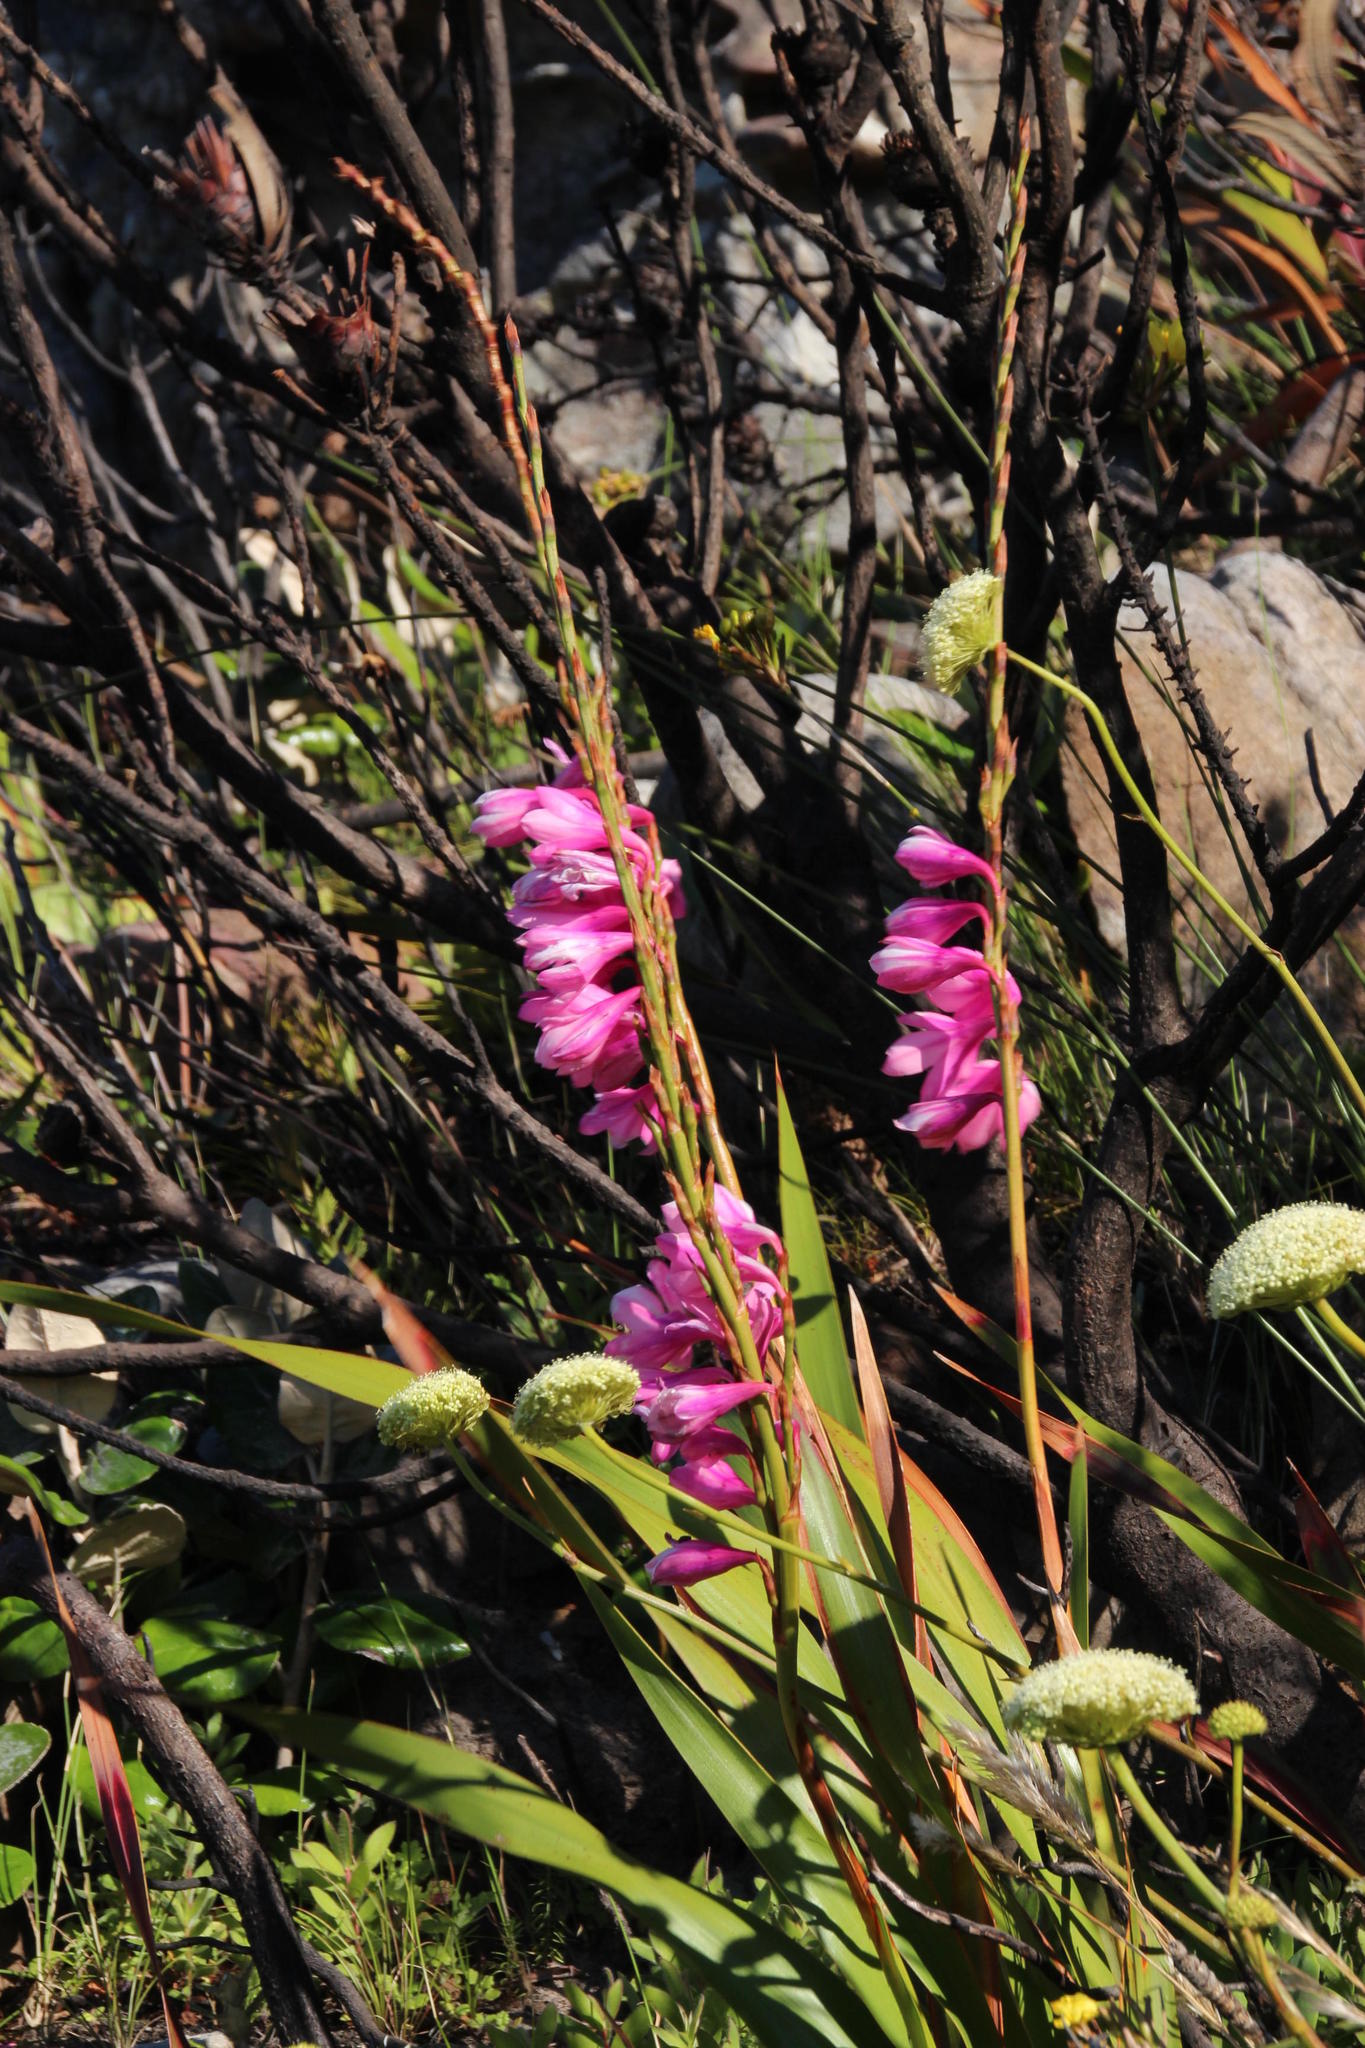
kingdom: Plantae
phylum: Tracheophyta
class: Liliopsida
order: Asparagales
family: Iridaceae
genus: Watsonia
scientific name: Watsonia borbonica
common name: Bugle-lily
